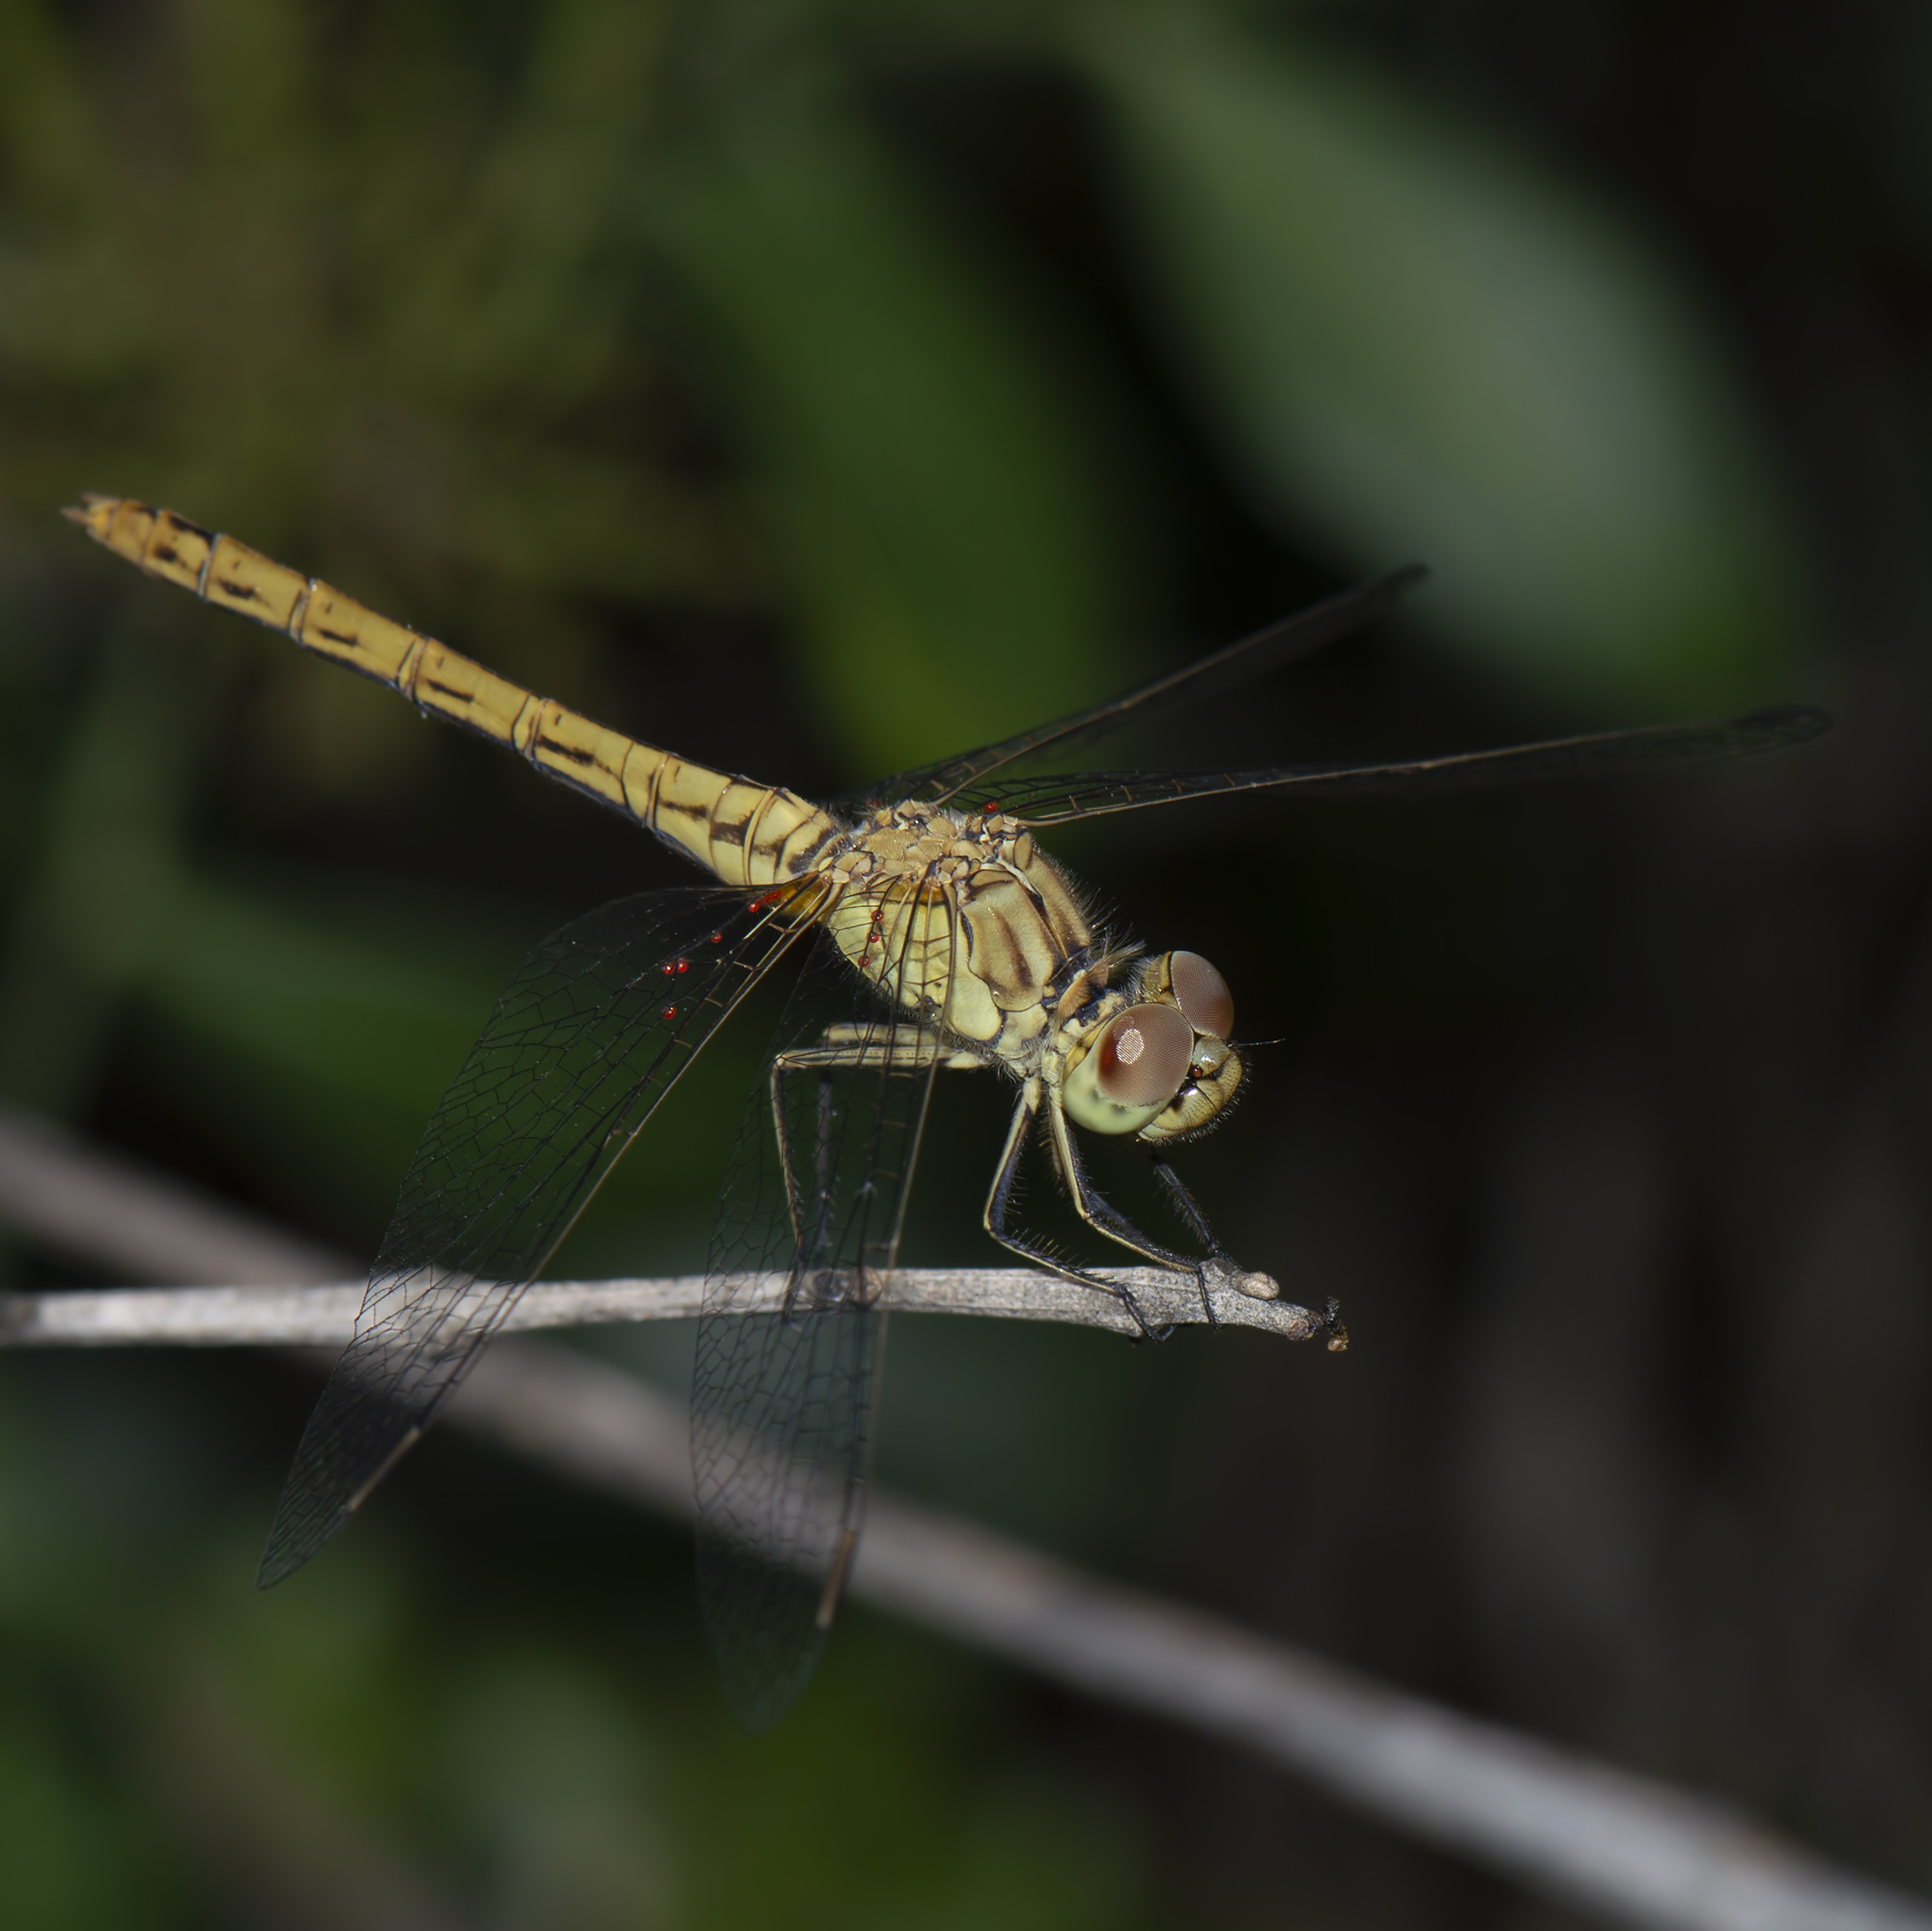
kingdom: Animalia
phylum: Arthropoda
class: Insecta
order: Odonata
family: Libellulidae
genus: Sympetrum
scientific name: Sympetrum meridionale
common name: Southern darter
